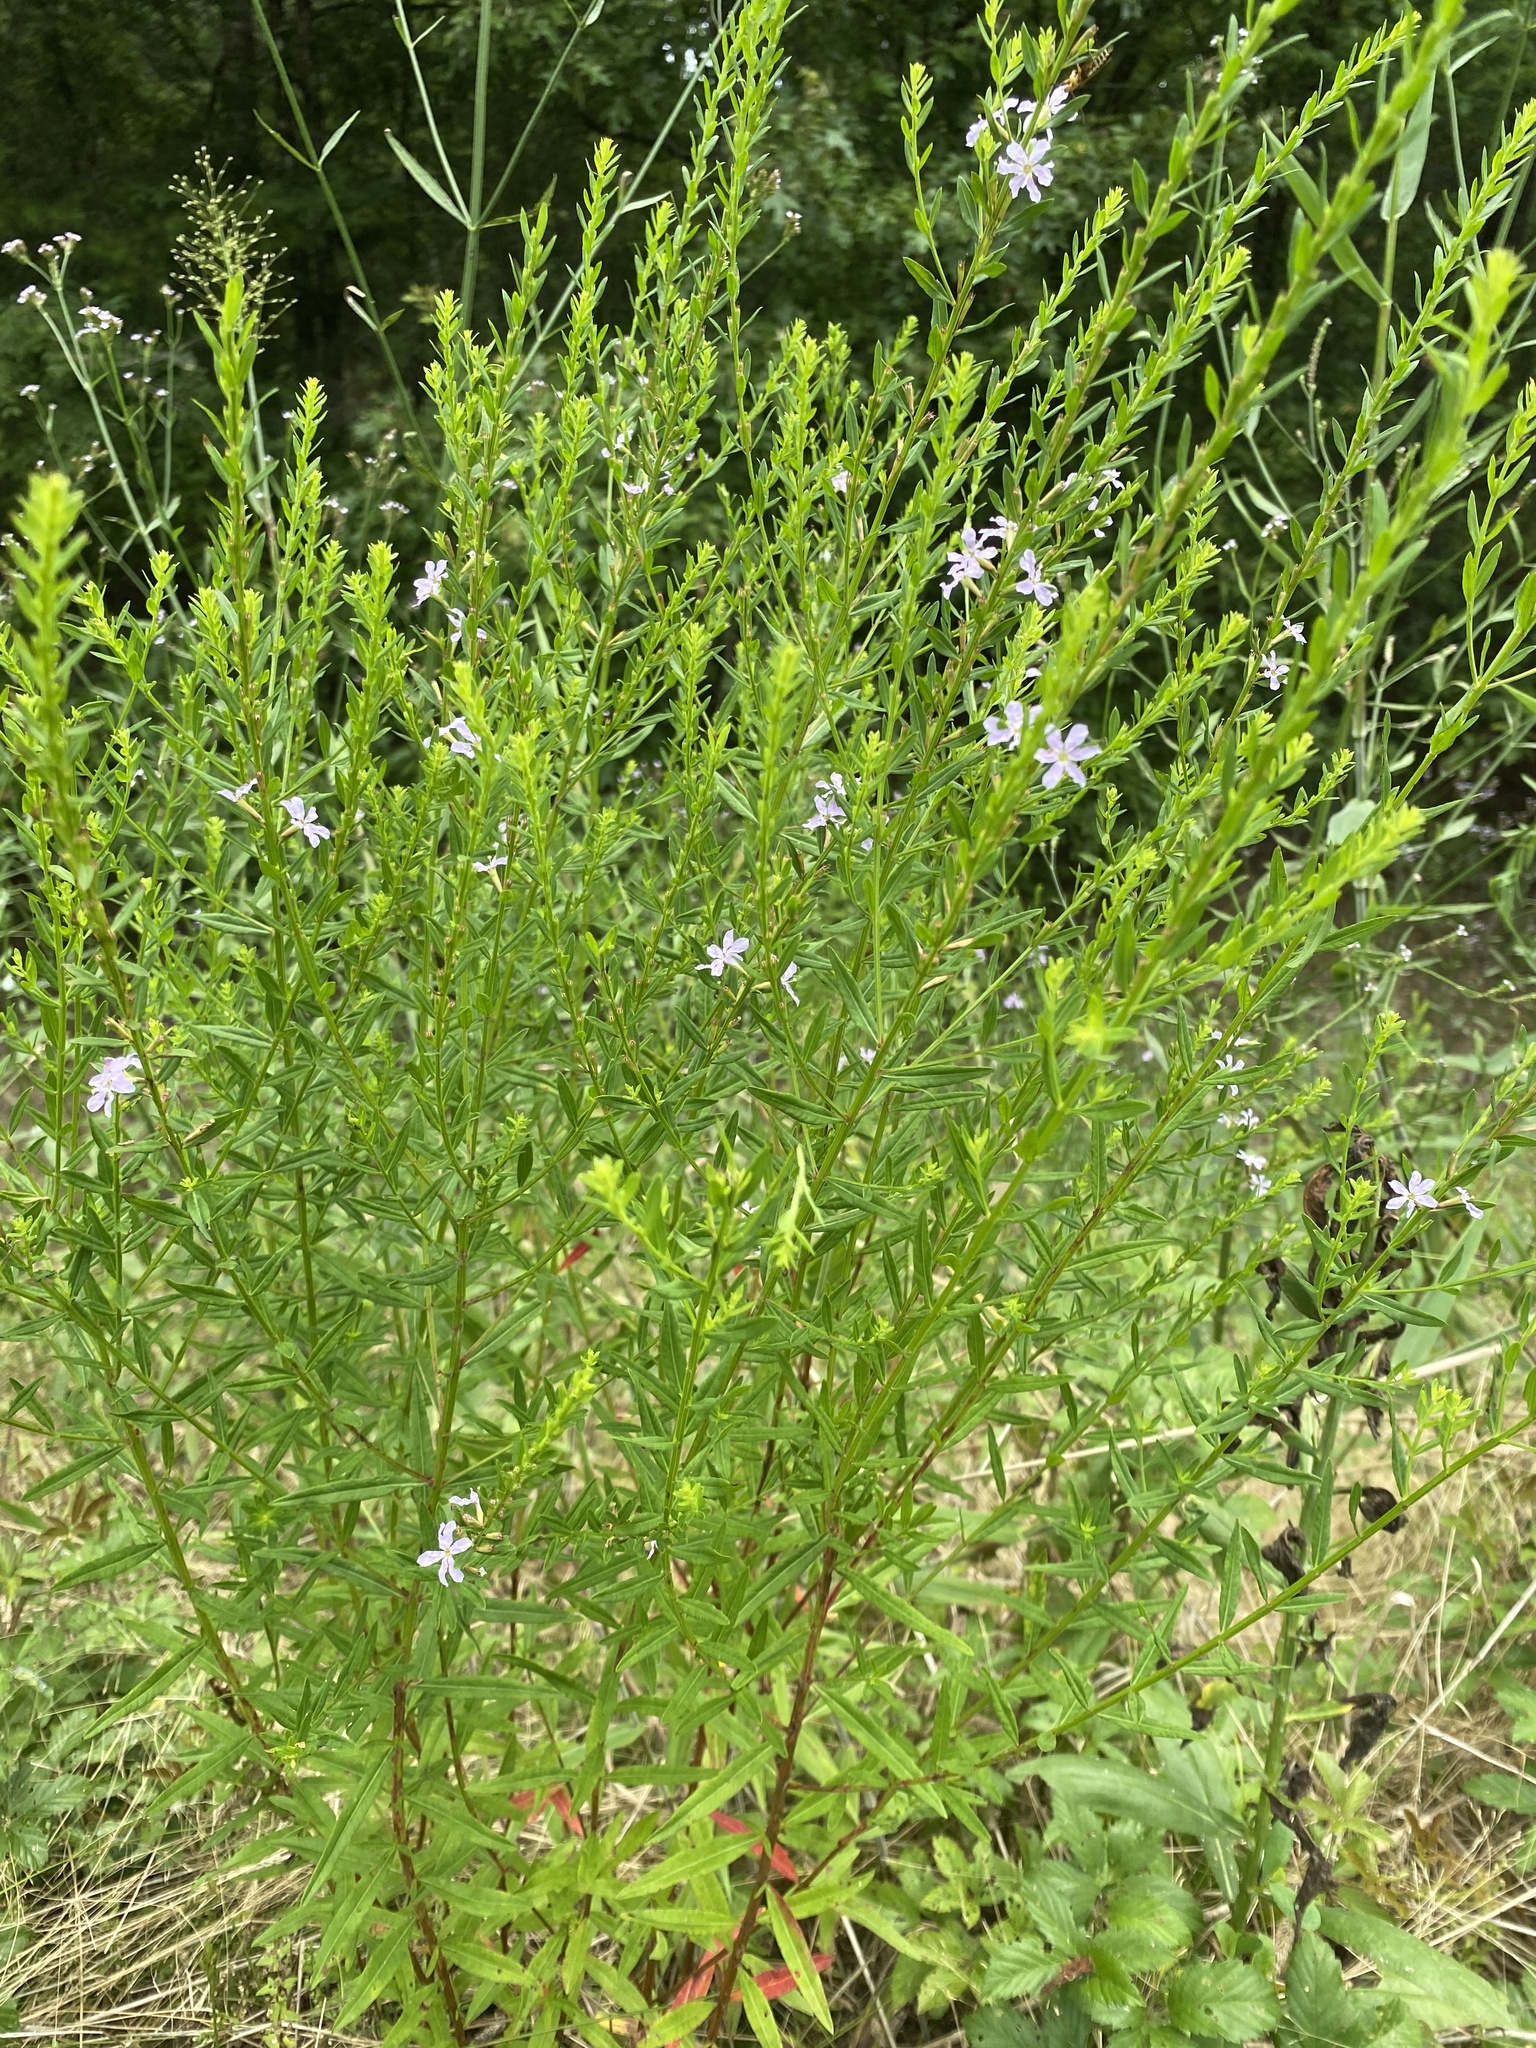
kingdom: Plantae
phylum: Tracheophyta
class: Magnoliopsida
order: Myrtales
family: Lythraceae
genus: Lythrum
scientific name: Lythrum alatum
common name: Winged loosestrife
